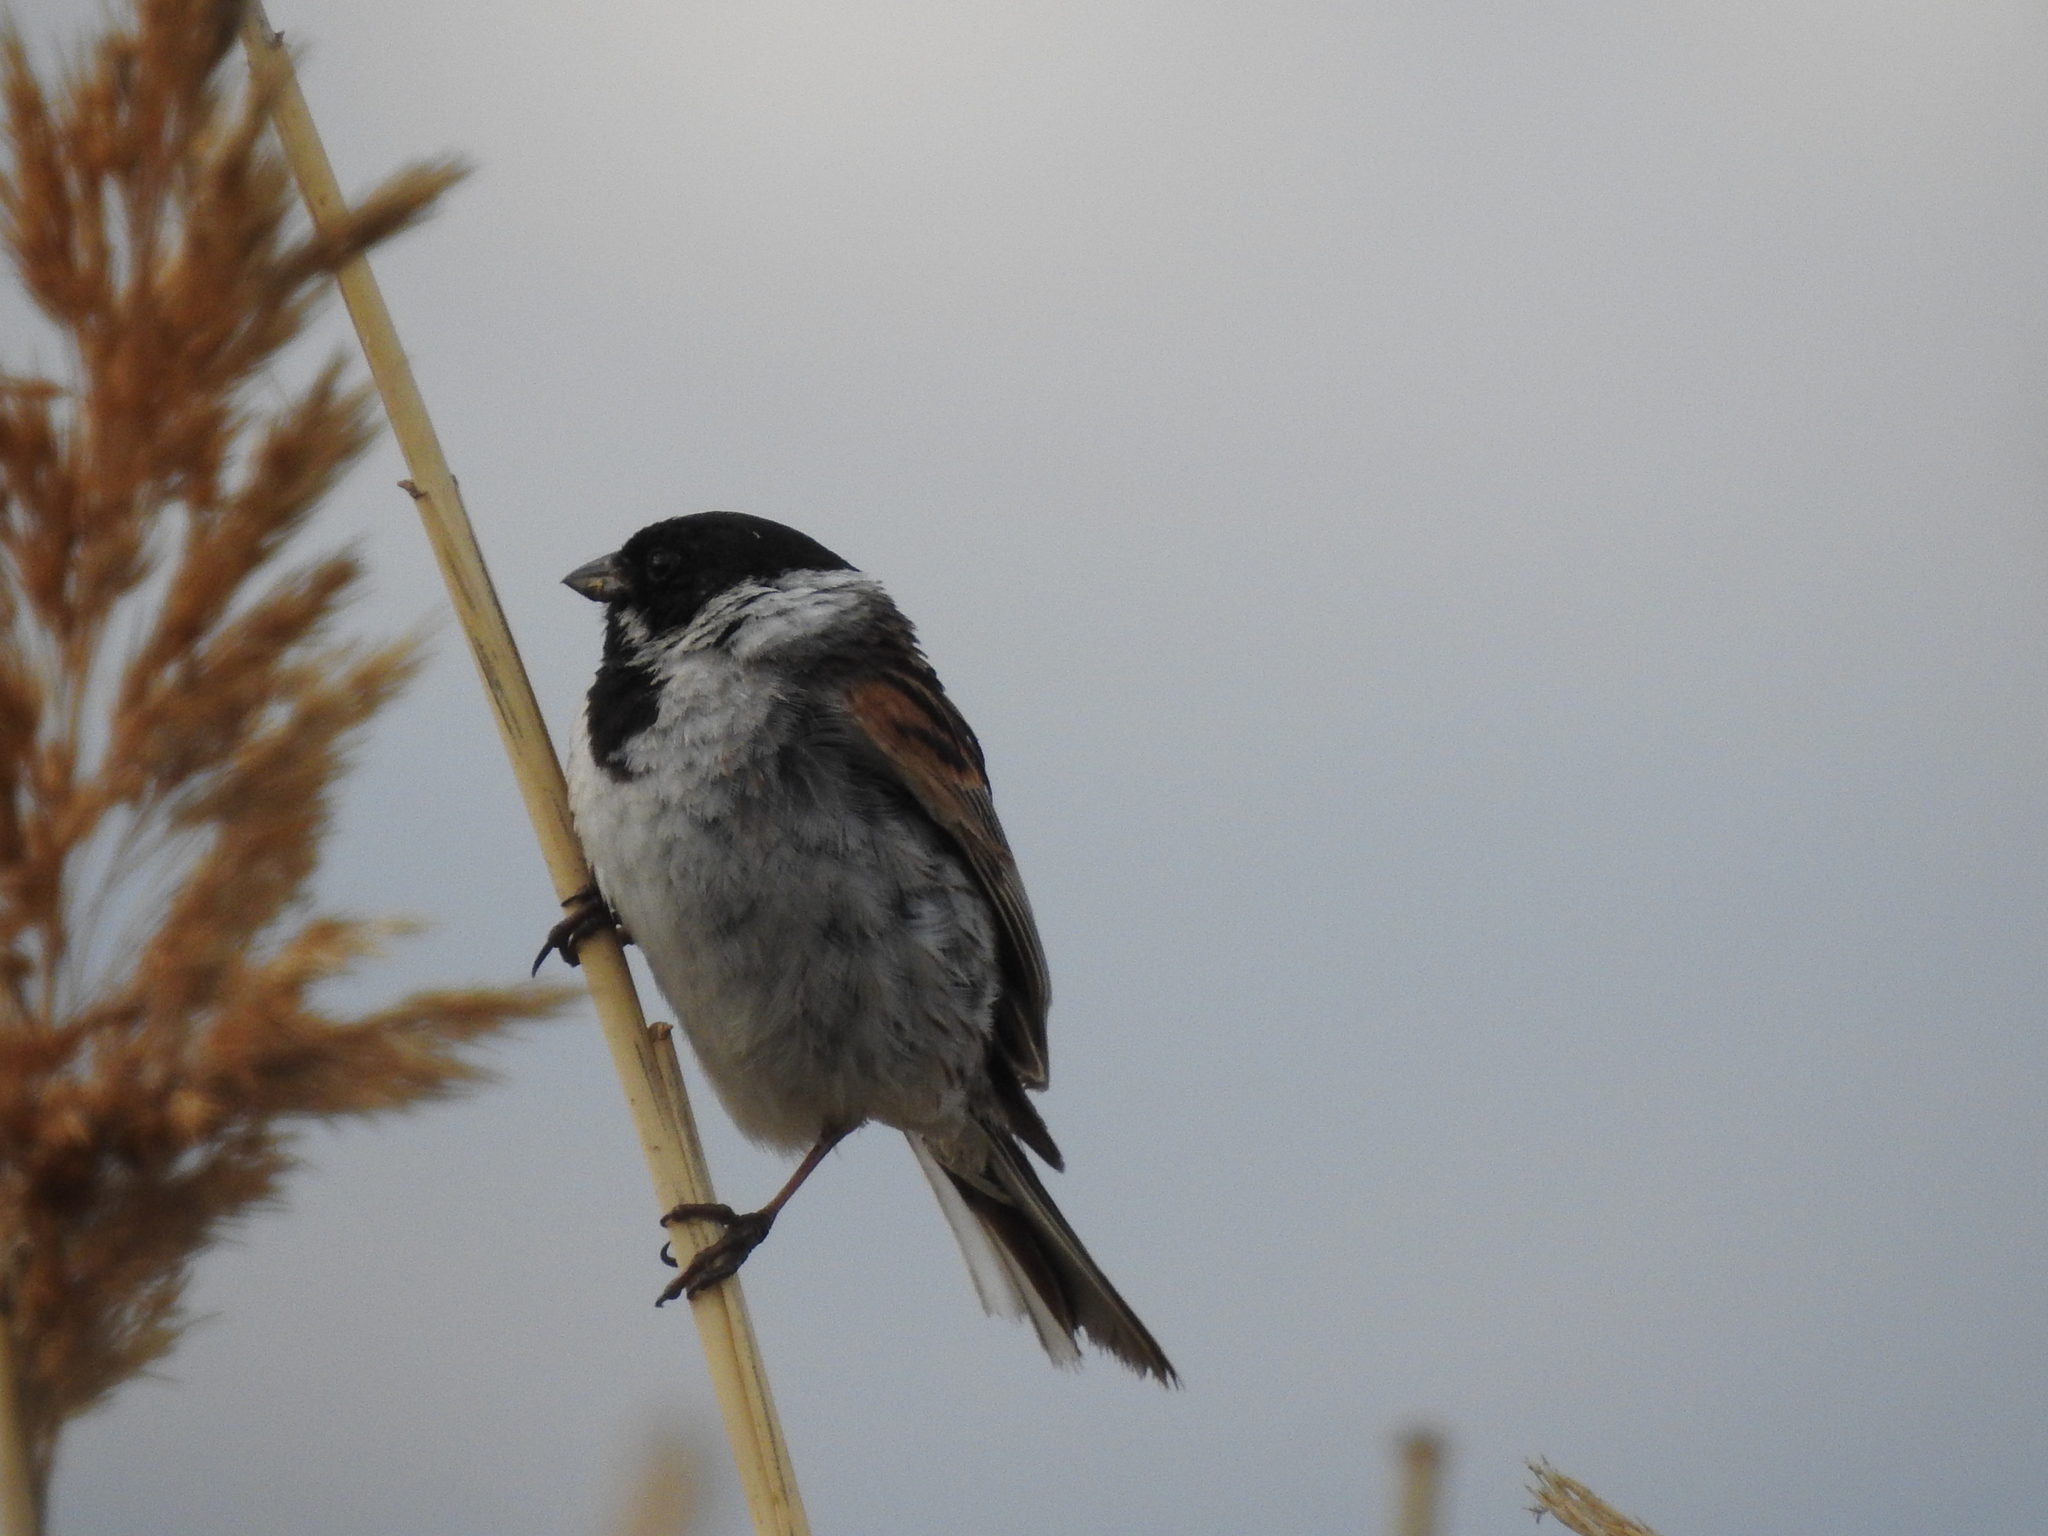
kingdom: Animalia
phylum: Chordata
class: Aves
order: Passeriformes
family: Emberizidae
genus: Emberiza
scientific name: Emberiza schoeniclus
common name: Reed bunting
